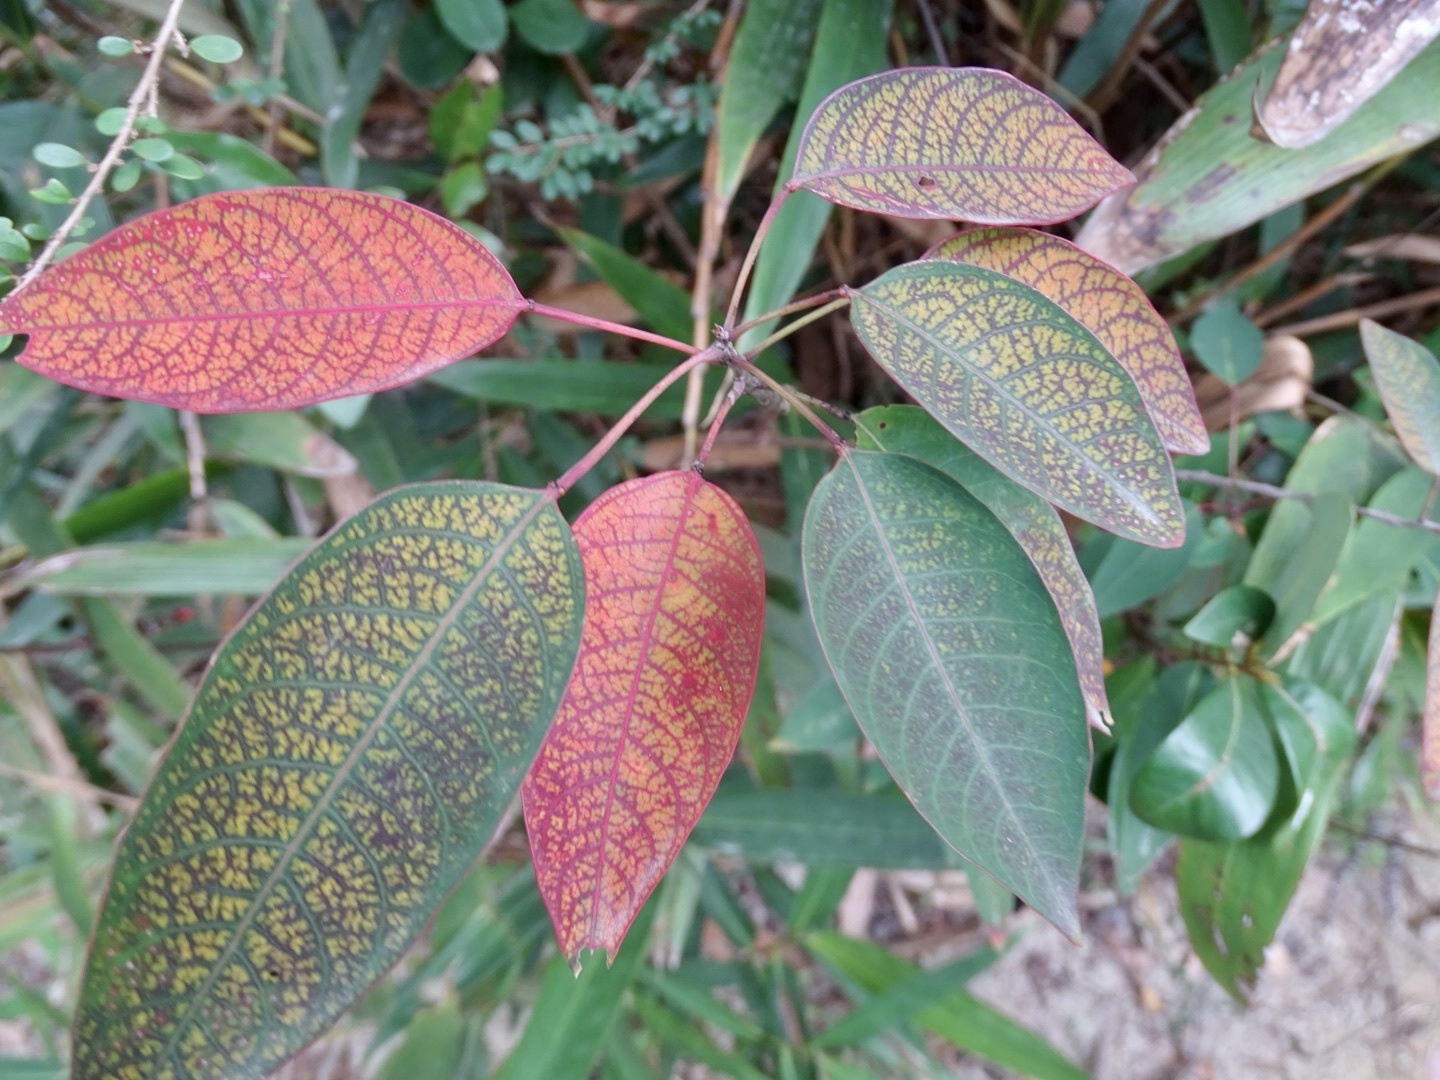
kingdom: Plantae
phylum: Tracheophyta
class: Magnoliopsida
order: Malpighiales
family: Euphorbiaceae
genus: Triadica
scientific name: Triadica cochinchinensis
